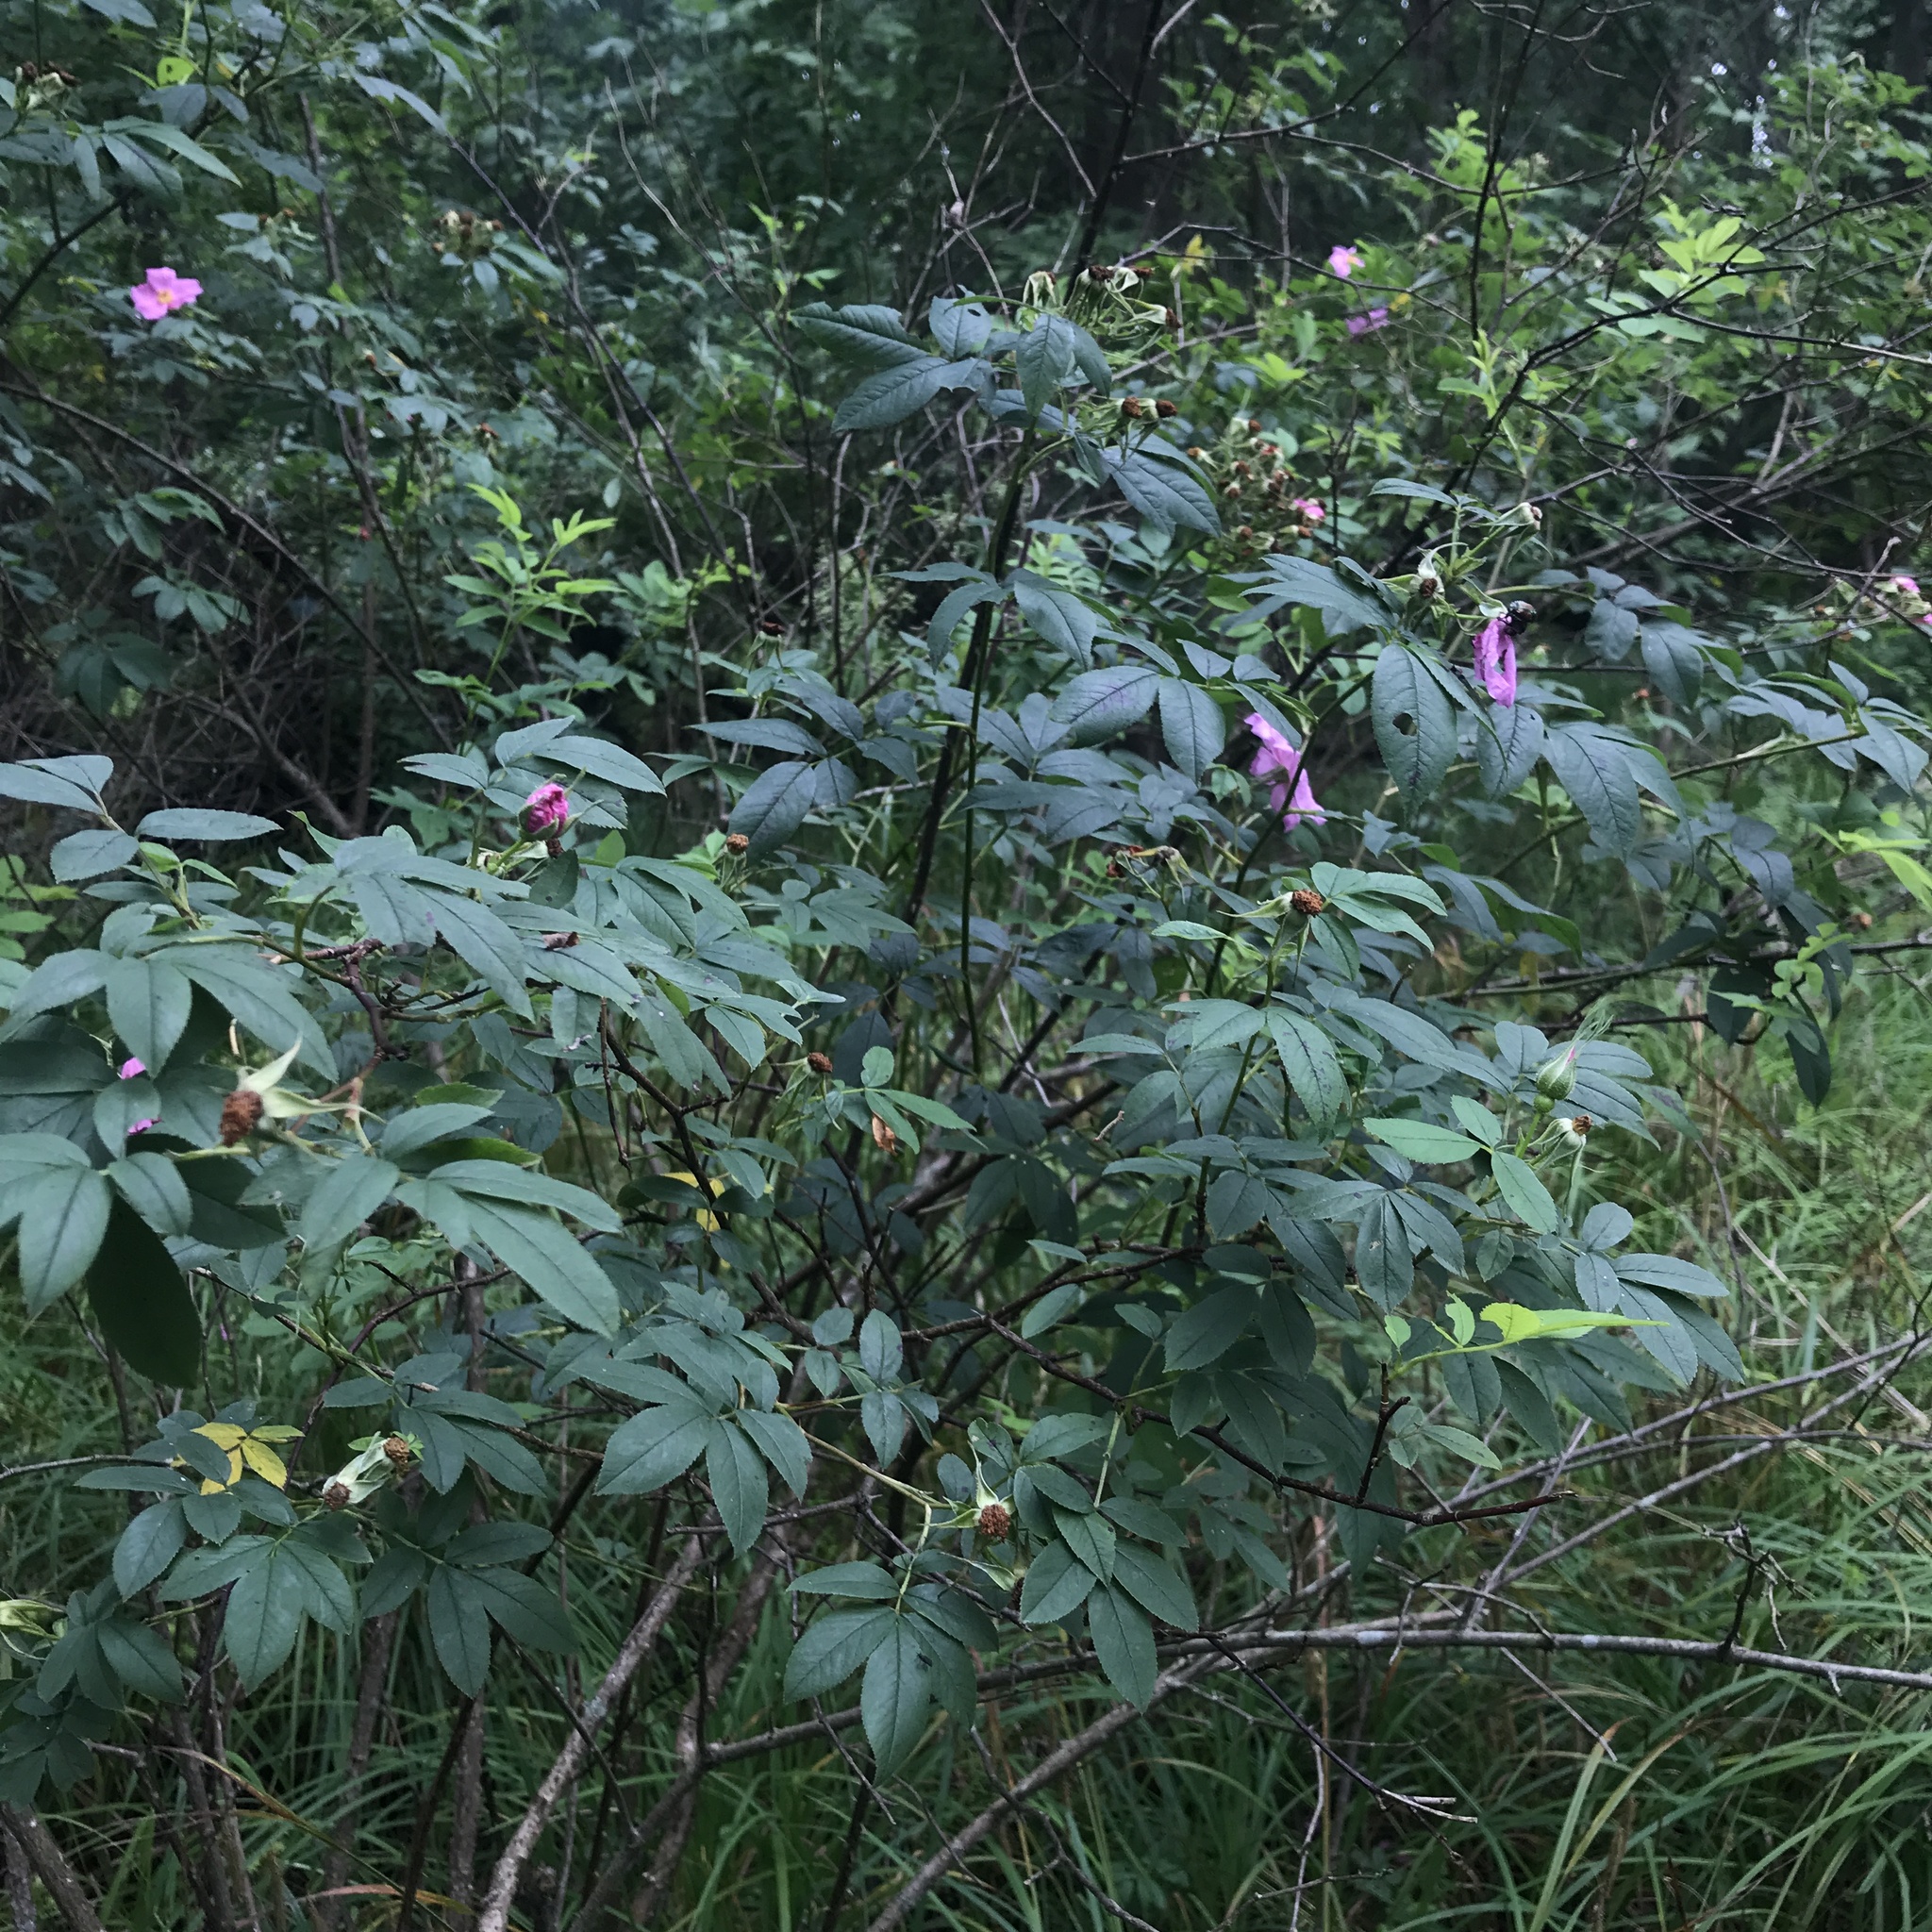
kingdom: Plantae
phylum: Tracheophyta
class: Magnoliopsida
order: Rosales
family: Rosaceae
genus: Rosa
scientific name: Rosa palustris
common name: Swamp rose
